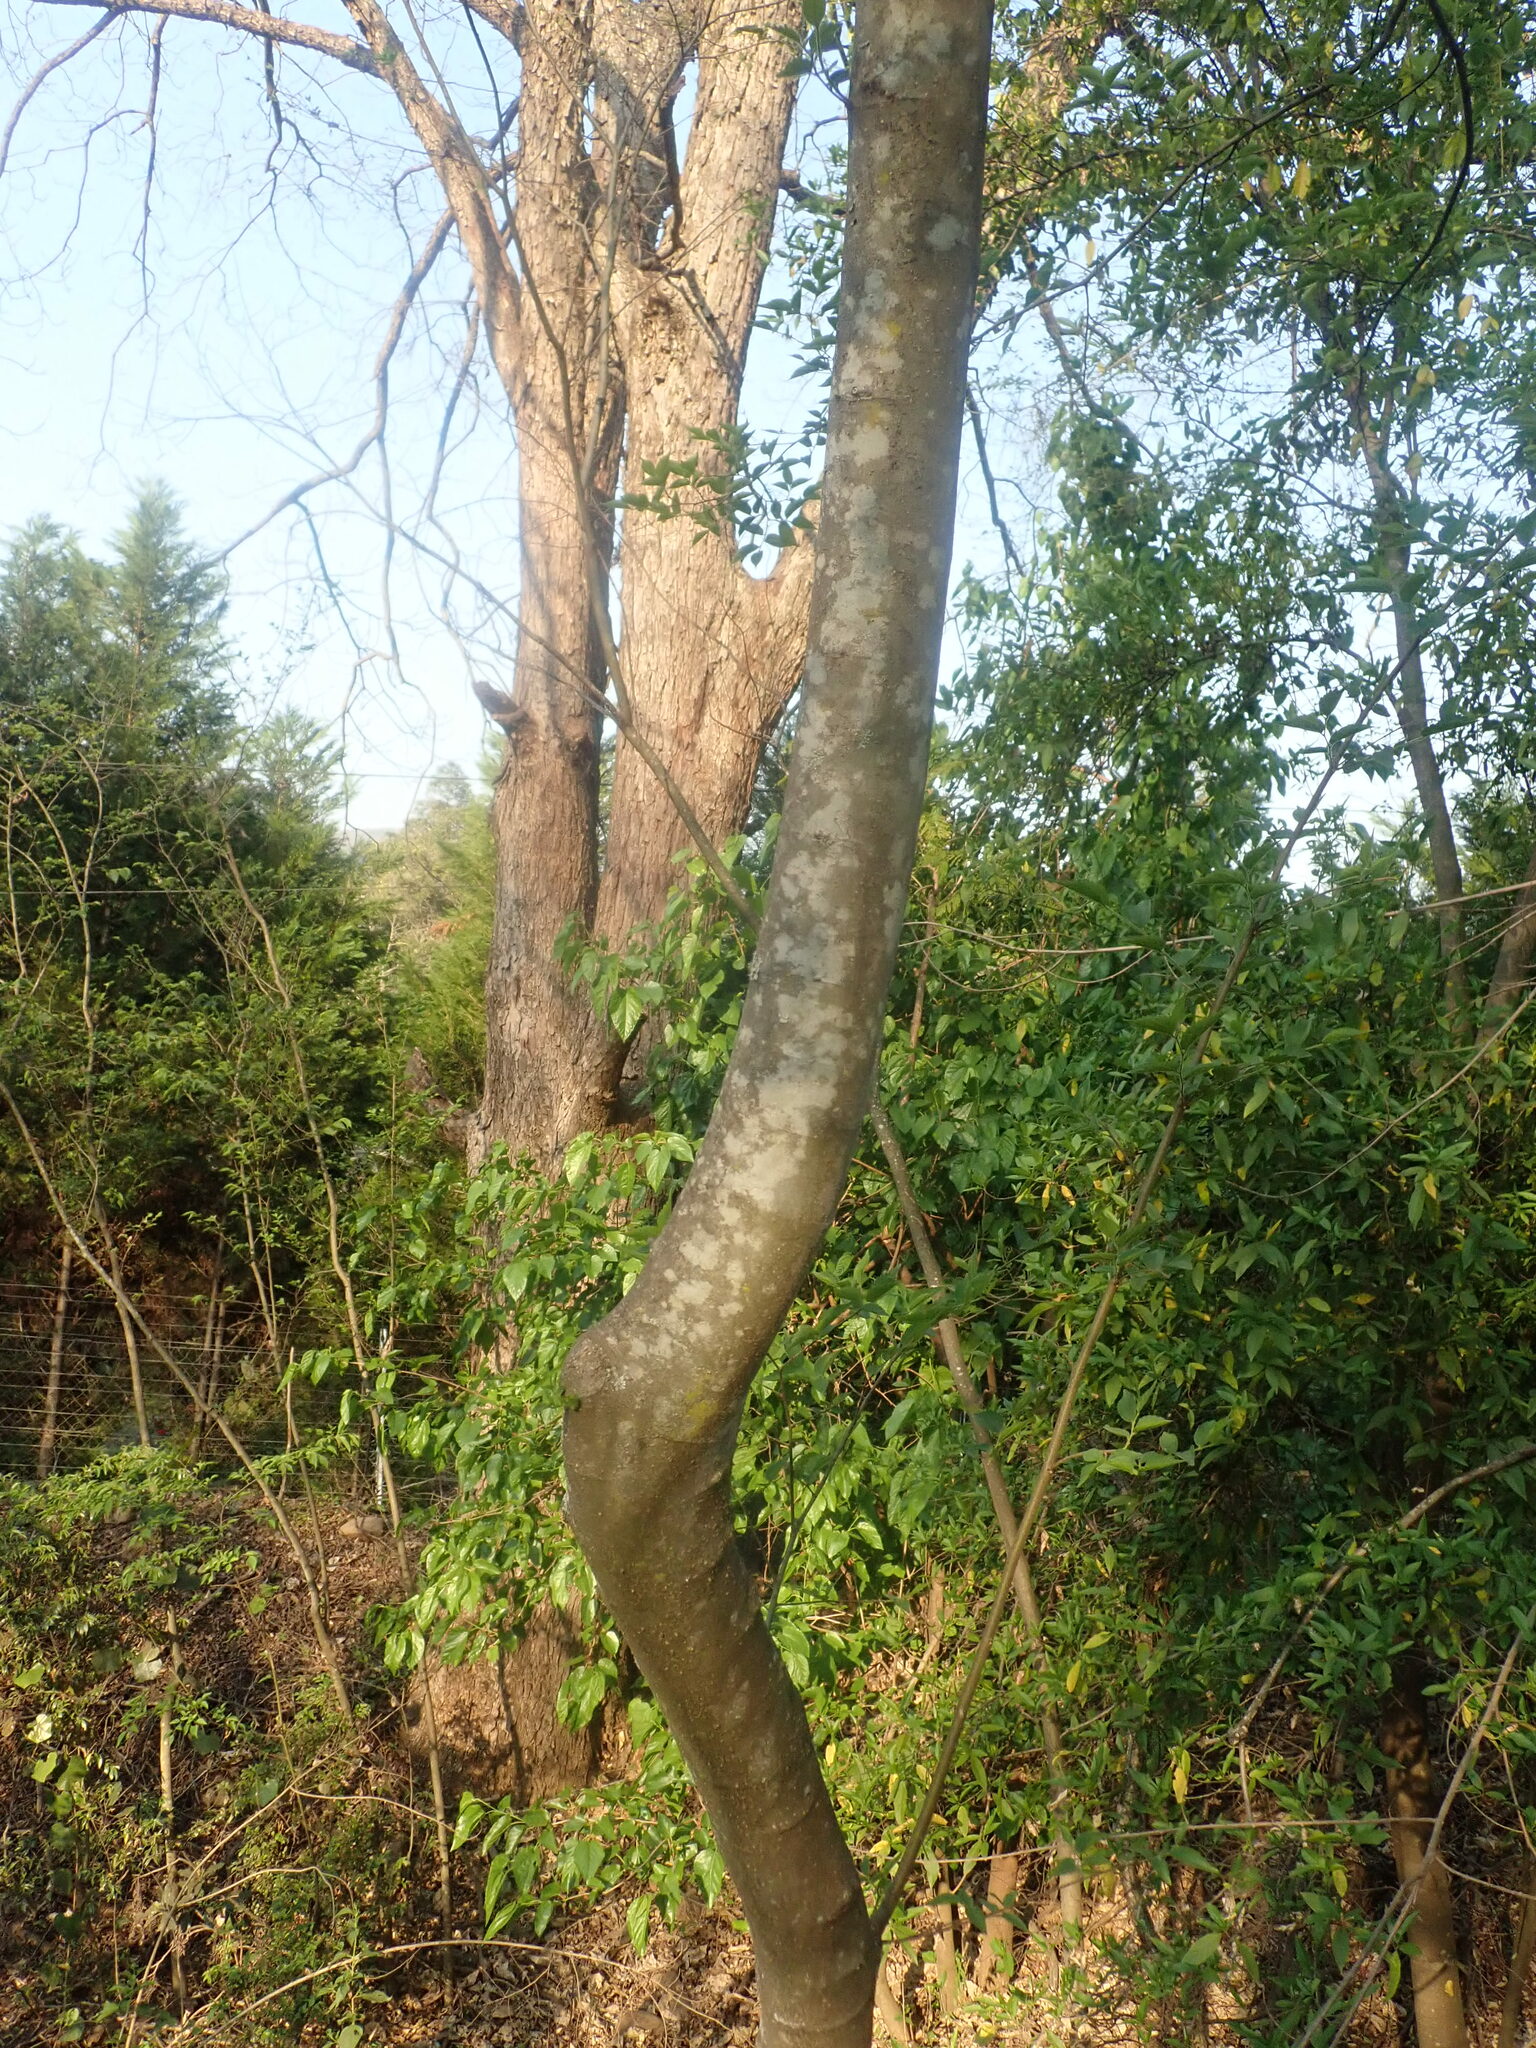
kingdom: Plantae
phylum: Tracheophyta
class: Magnoliopsida
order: Rosales
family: Cannabaceae
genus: Celtis
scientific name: Celtis africana
